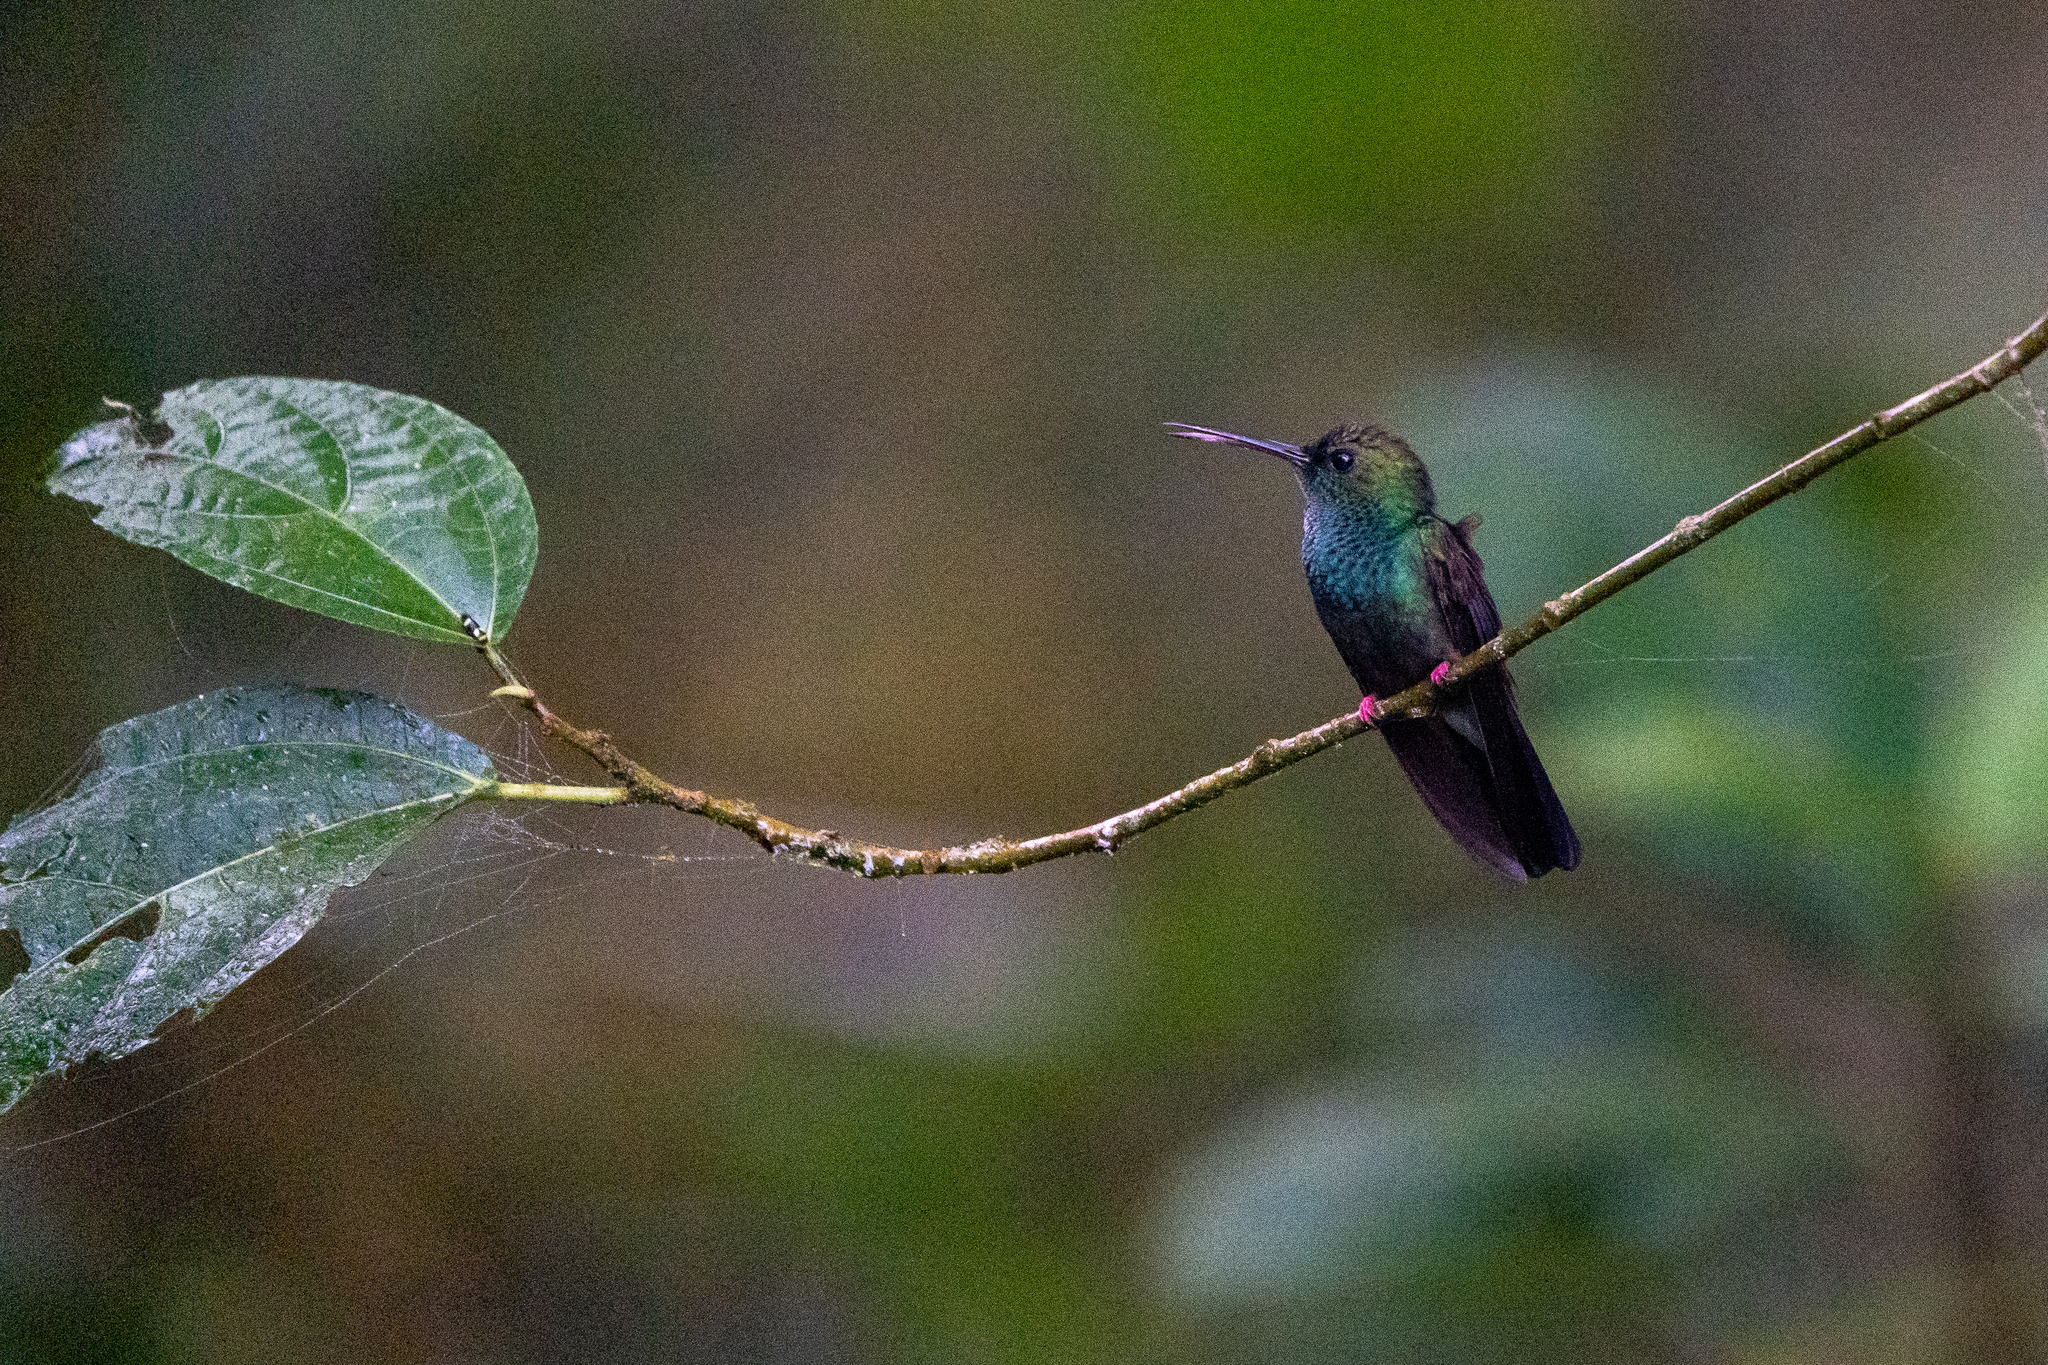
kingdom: Animalia
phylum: Chordata
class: Aves
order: Apodiformes
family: Trochilidae
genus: Chalybura
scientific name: Chalybura urochrysia
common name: Bronze-tailed plumeleteer
